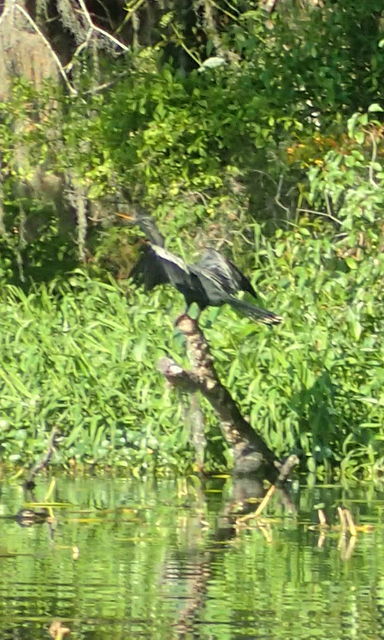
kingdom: Animalia
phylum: Chordata
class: Aves
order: Suliformes
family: Anhingidae
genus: Anhinga
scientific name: Anhinga anhinga
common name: Anhinga
